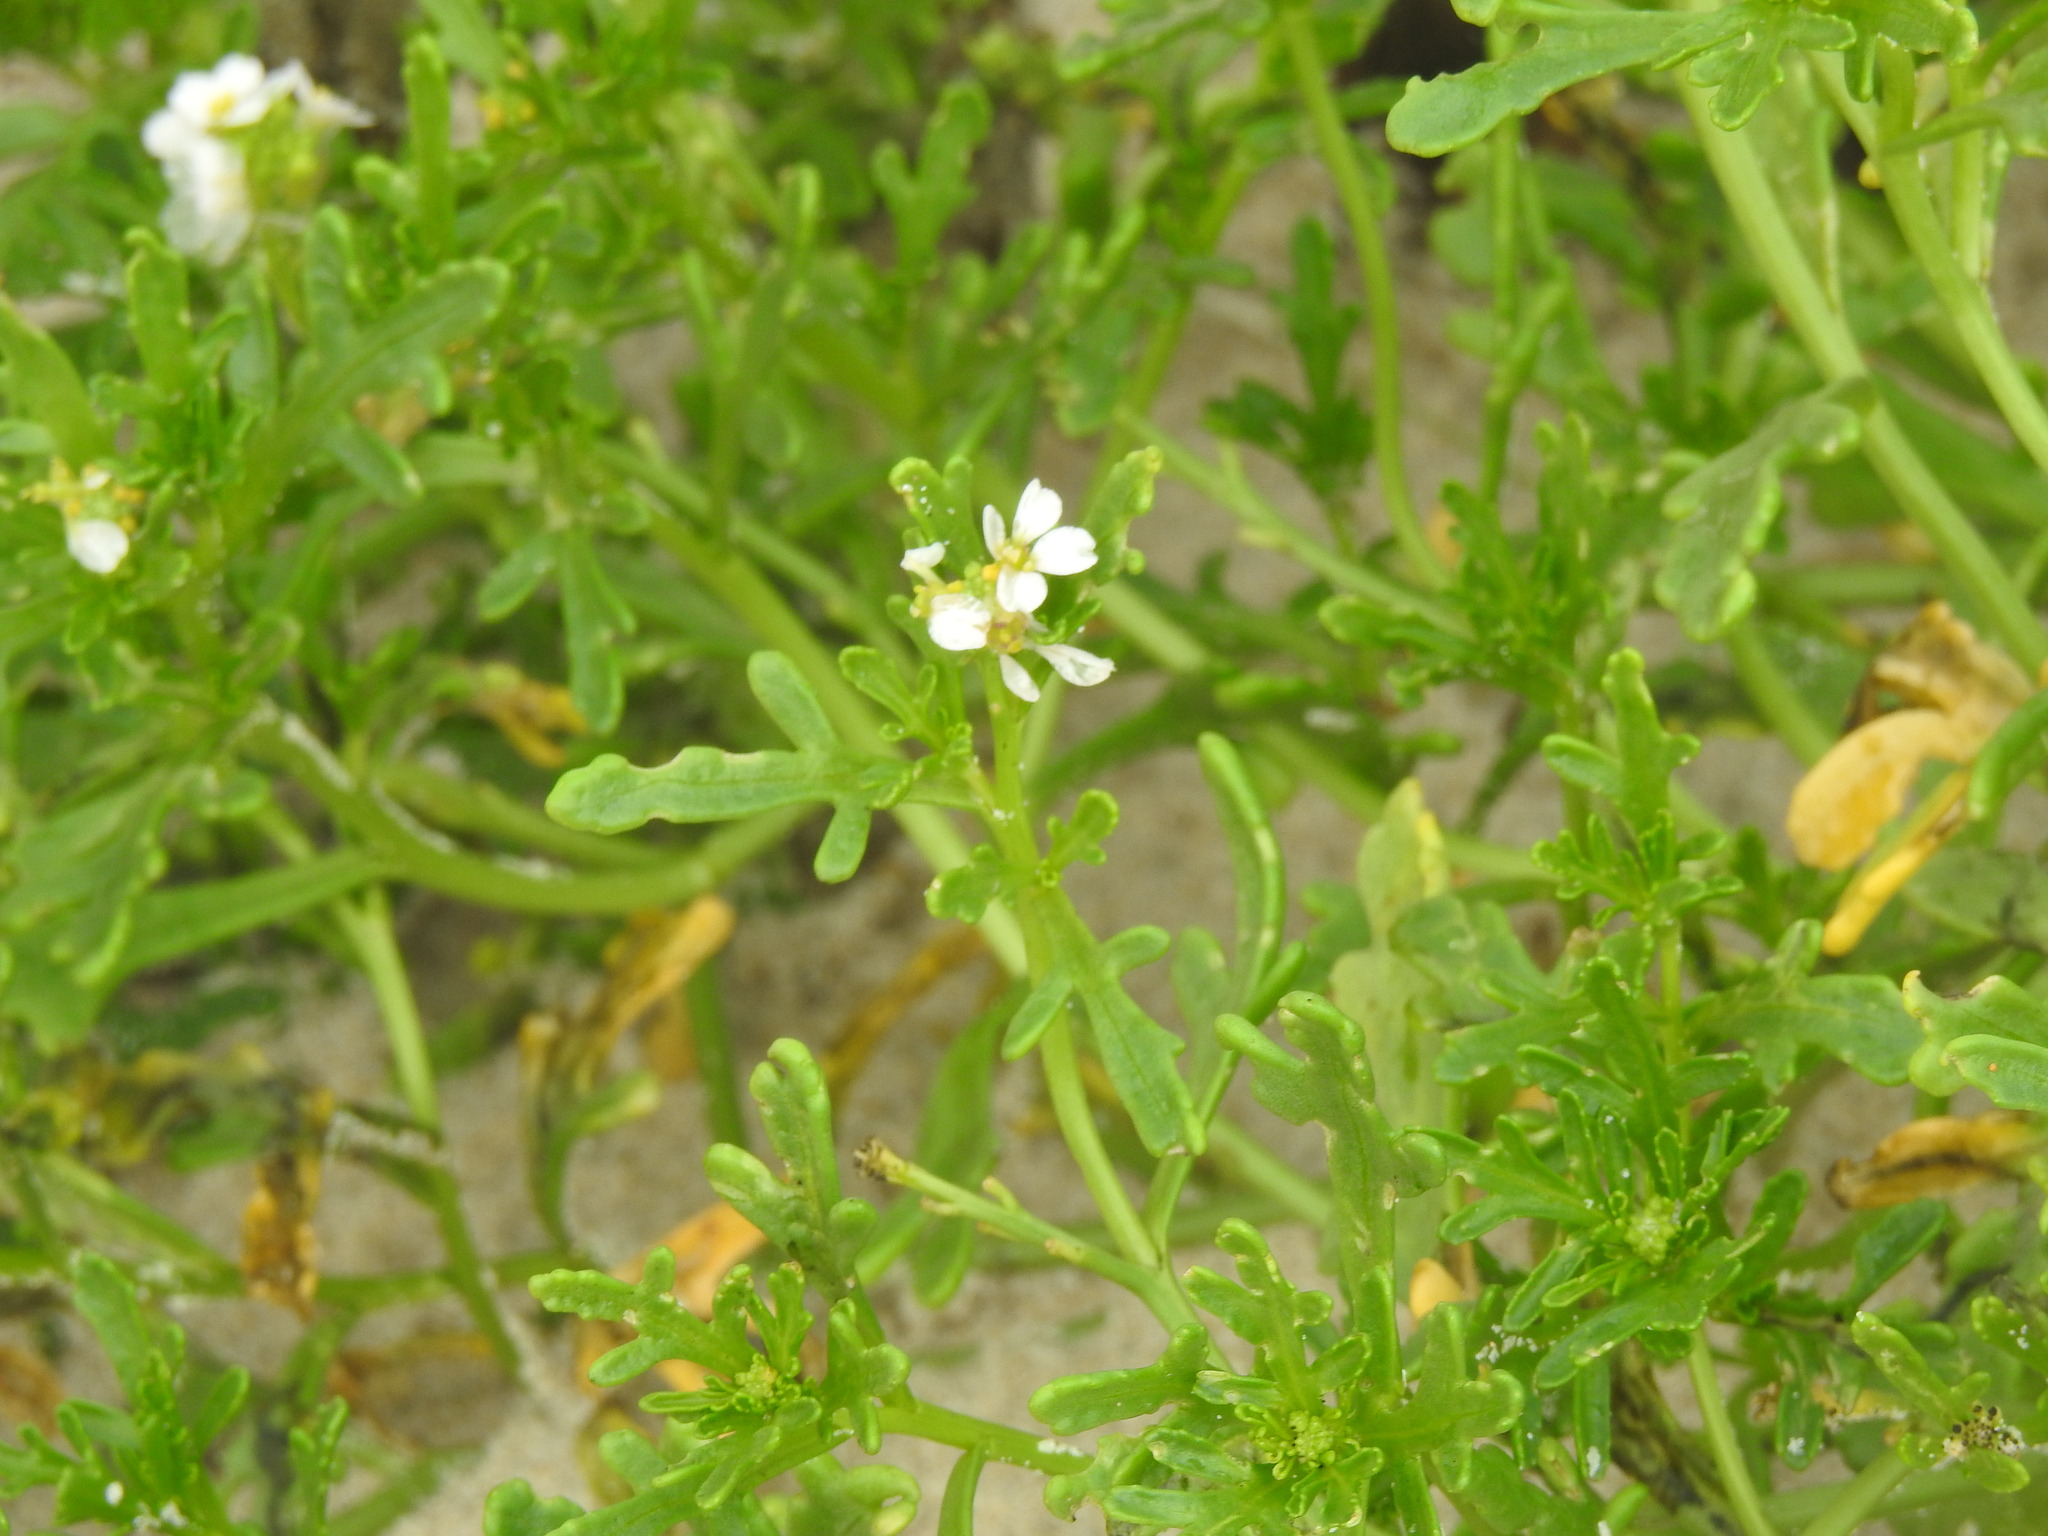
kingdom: Plantae
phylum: Tracheophyta
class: Magnoliopsida
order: Brassicales
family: Brassicaceae
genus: Cakile
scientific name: Cakile maritima
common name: Sea rocket
